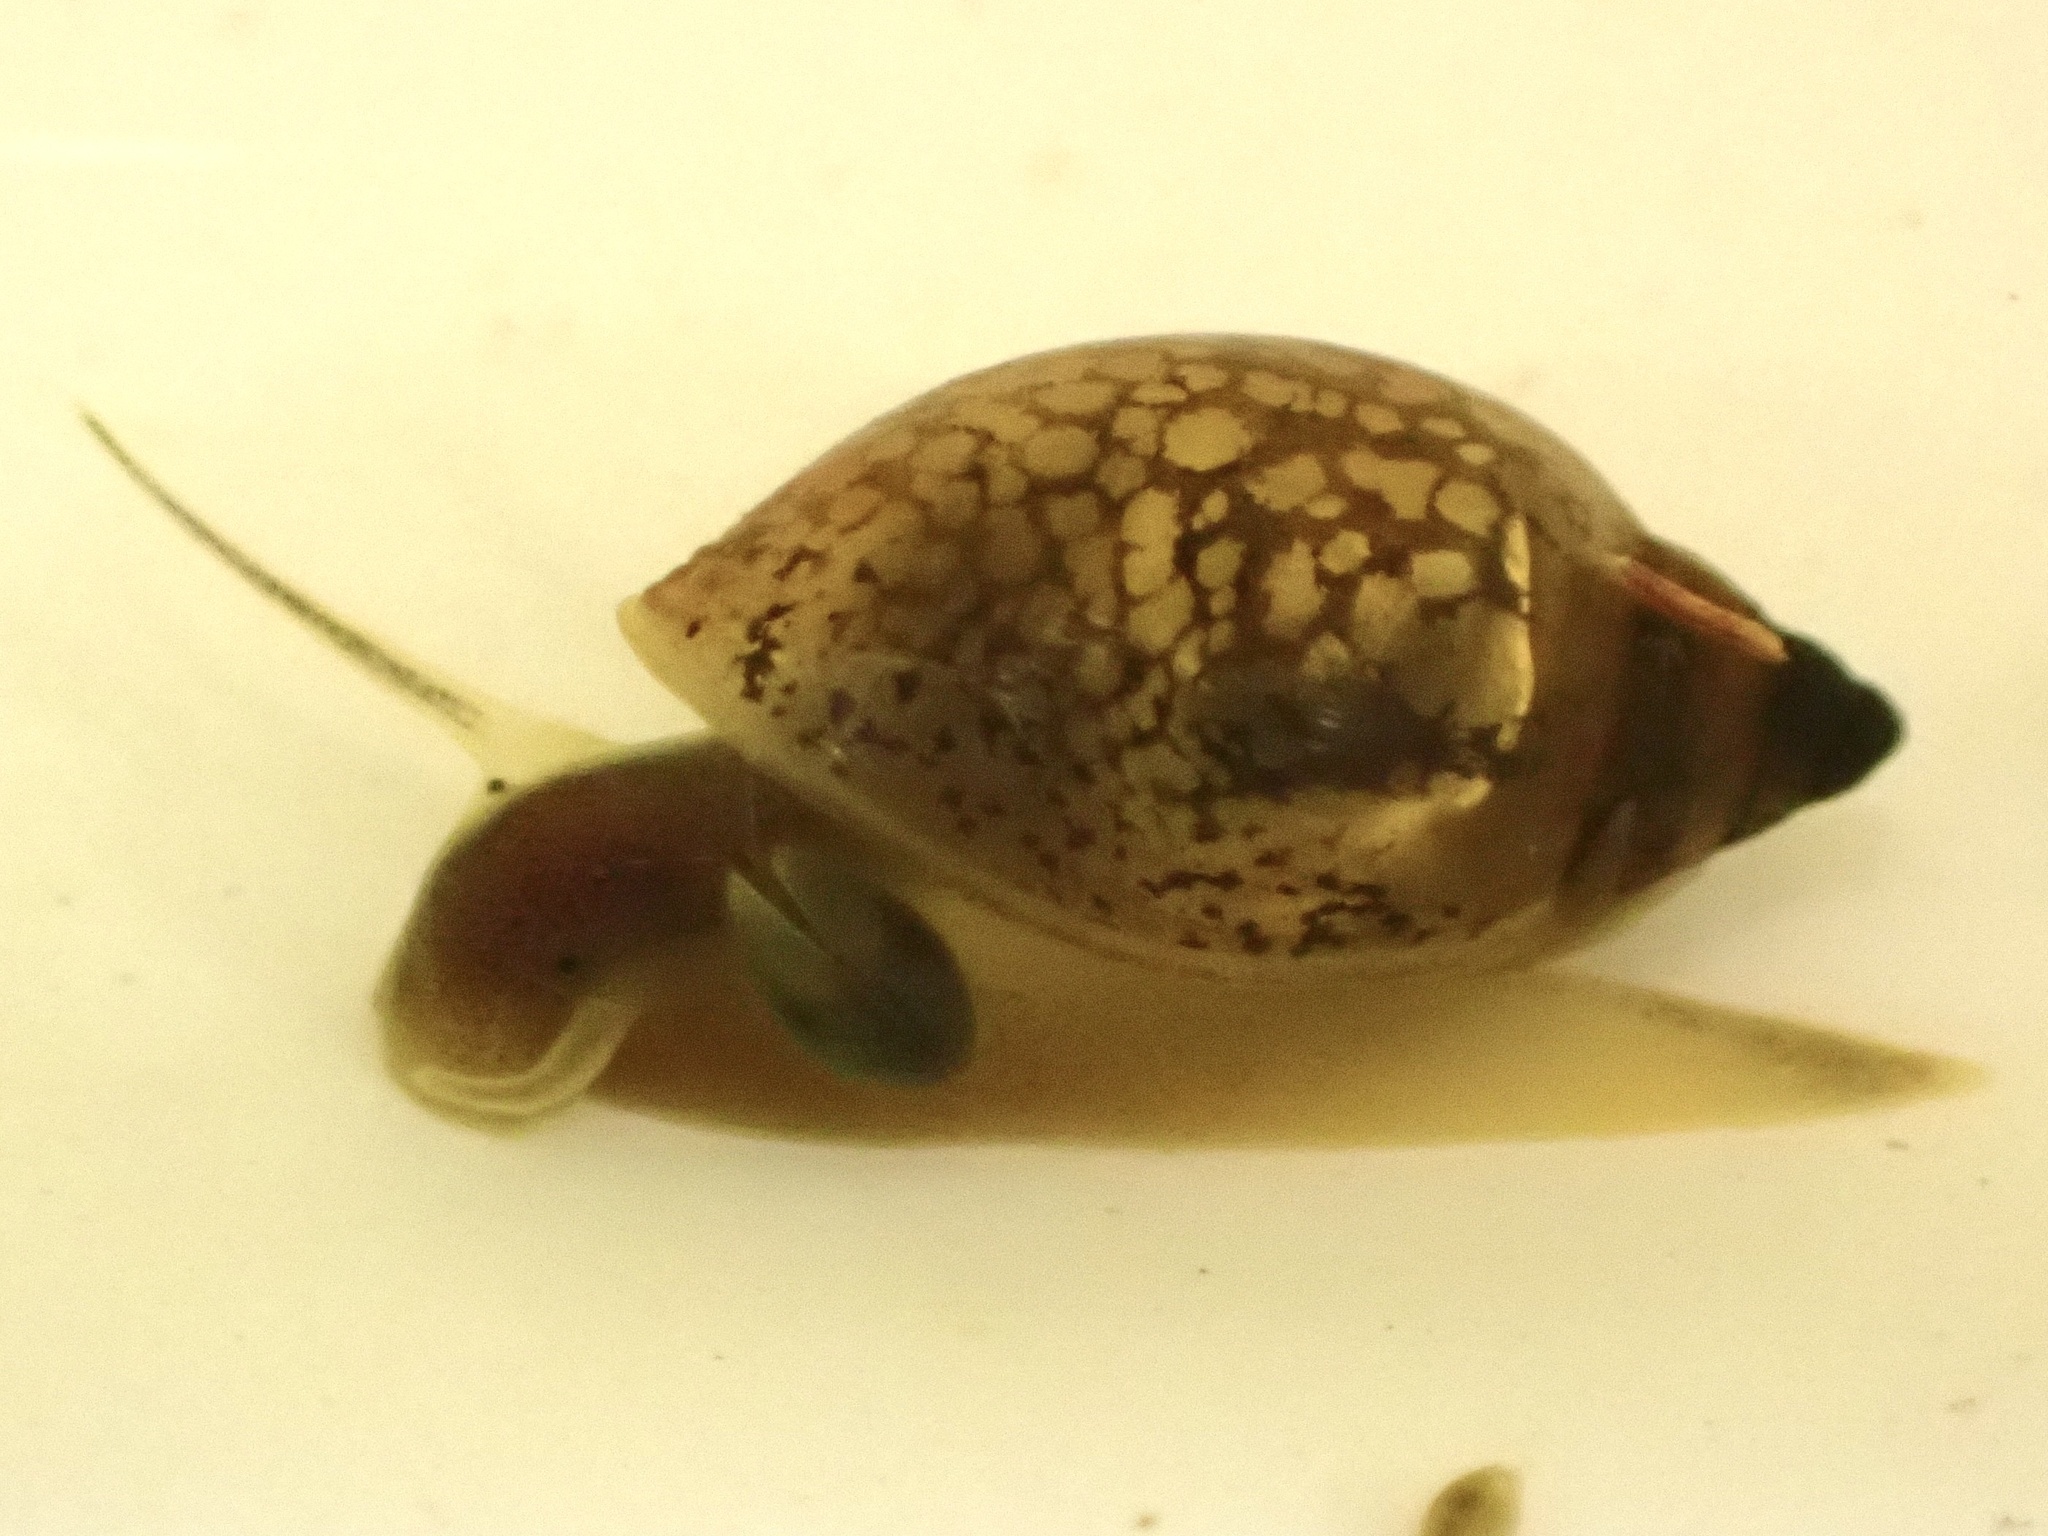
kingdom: Animalia
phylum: Mollusca
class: Gastropoda
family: Physidae
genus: Physella
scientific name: Physella acuta
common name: European physa
